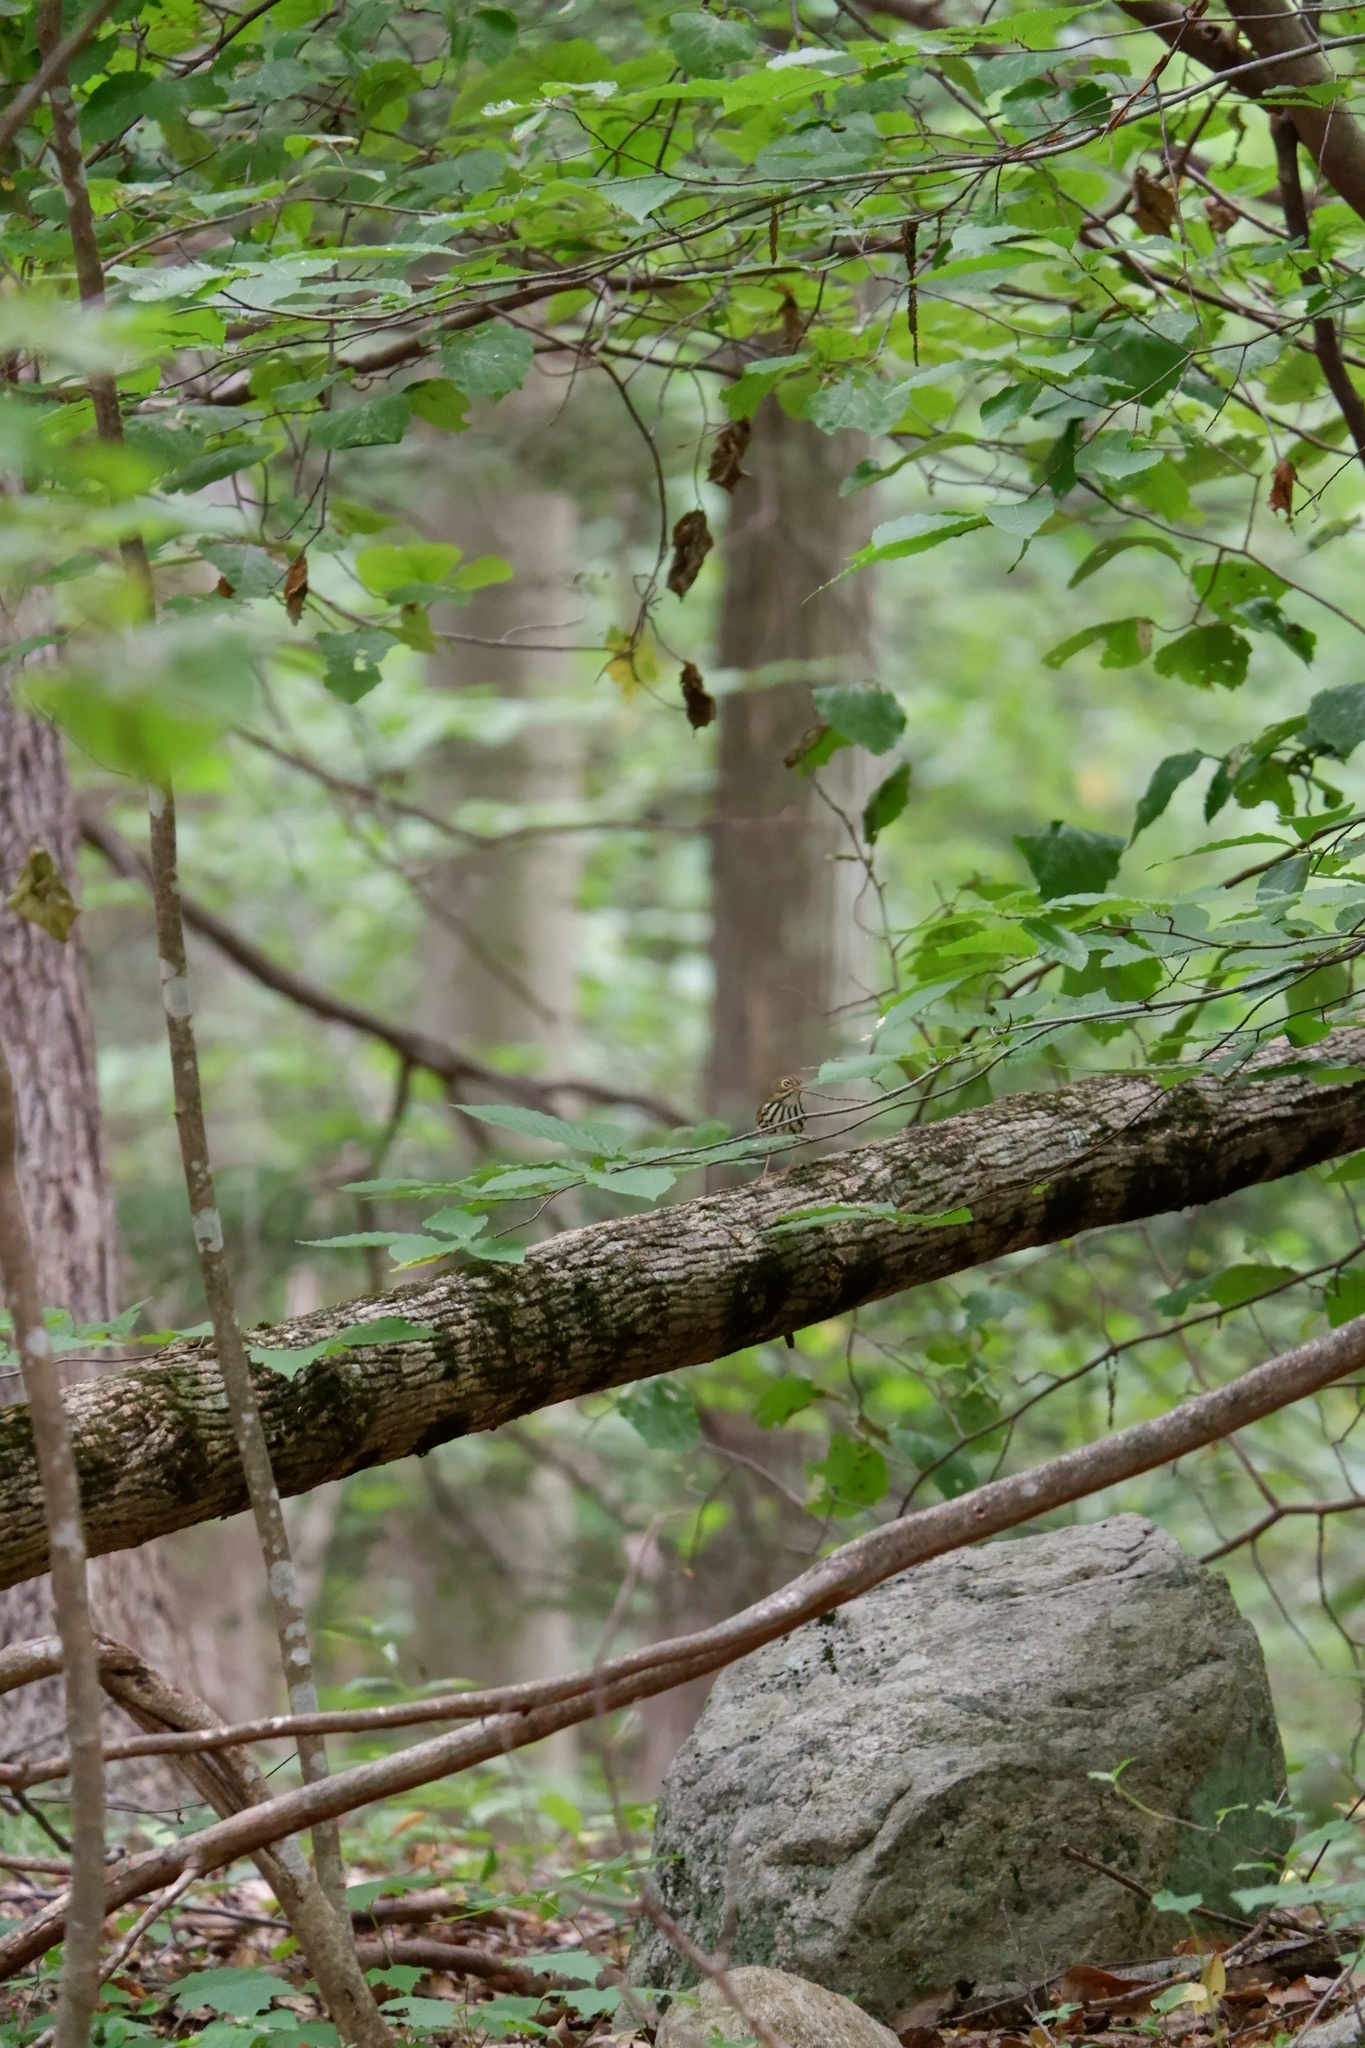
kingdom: Animalia
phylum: Chordata
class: Aves
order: Passeriformes
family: Parulidae
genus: Seiurus
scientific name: Seiurus aurocapilla
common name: Ovenbird
